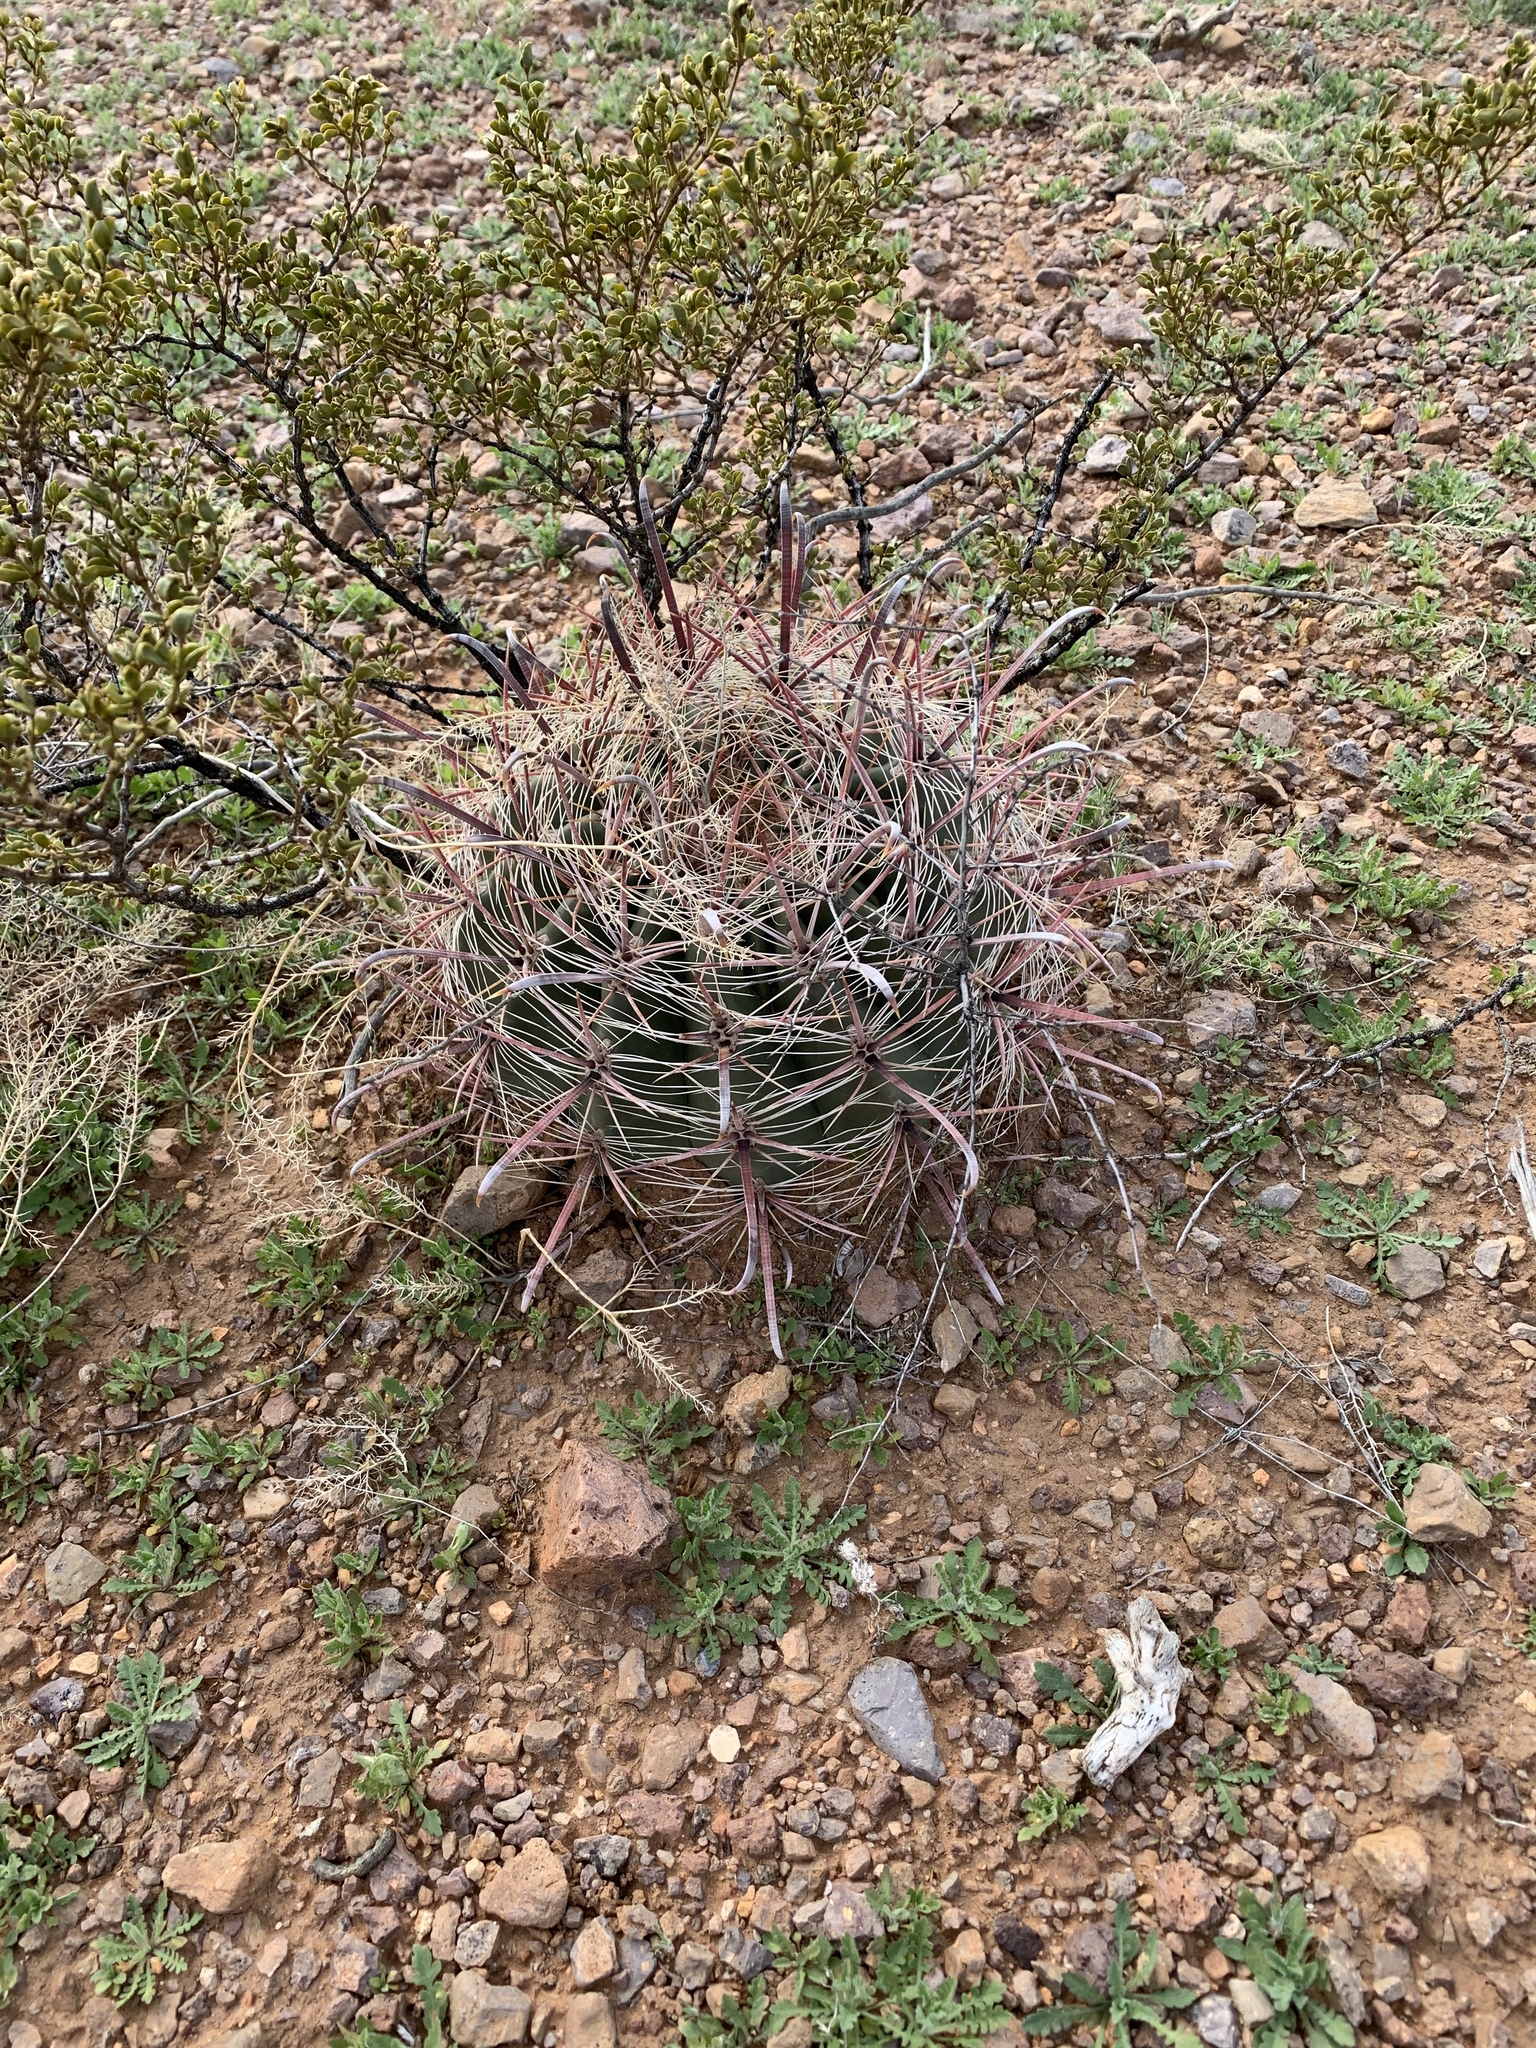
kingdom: Plantae
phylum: Tracheophyta
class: Magnoliopsida
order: Caryophyllales
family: Cactaceae
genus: Ferocactus
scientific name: Ferocactus wislizeni
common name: Candy barrel cactus
